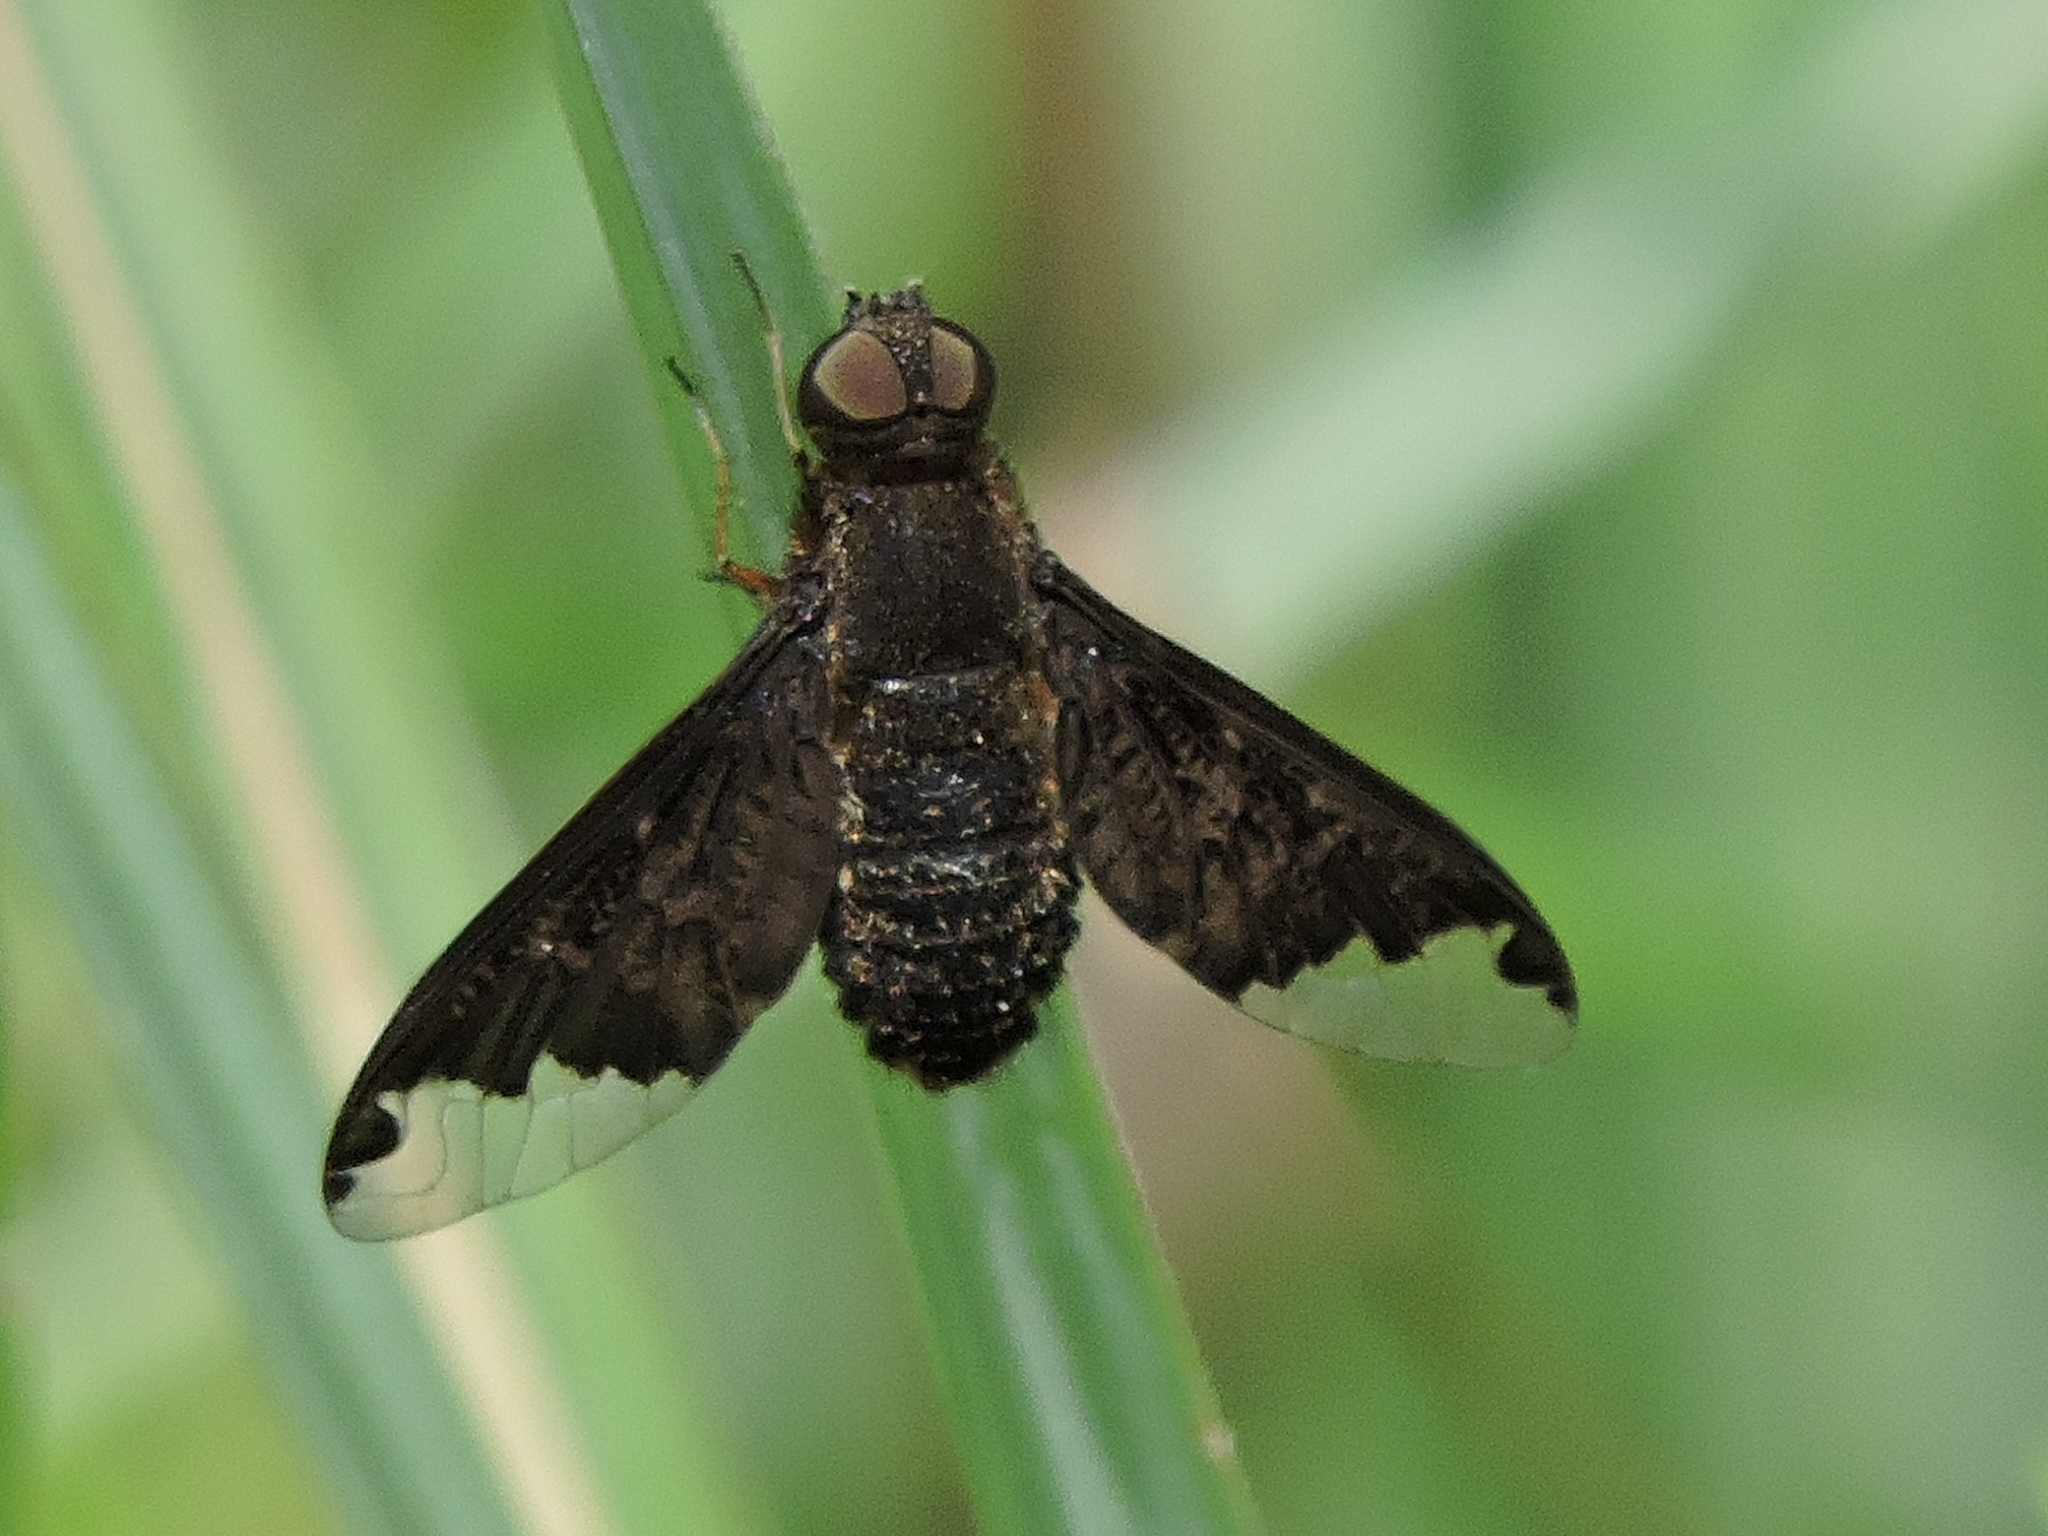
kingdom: Animalia
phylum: Arthropoda
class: Insecta
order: Diptera
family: Bombyliidae
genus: Hemipenthes
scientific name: Hemipenthes sinuosus
